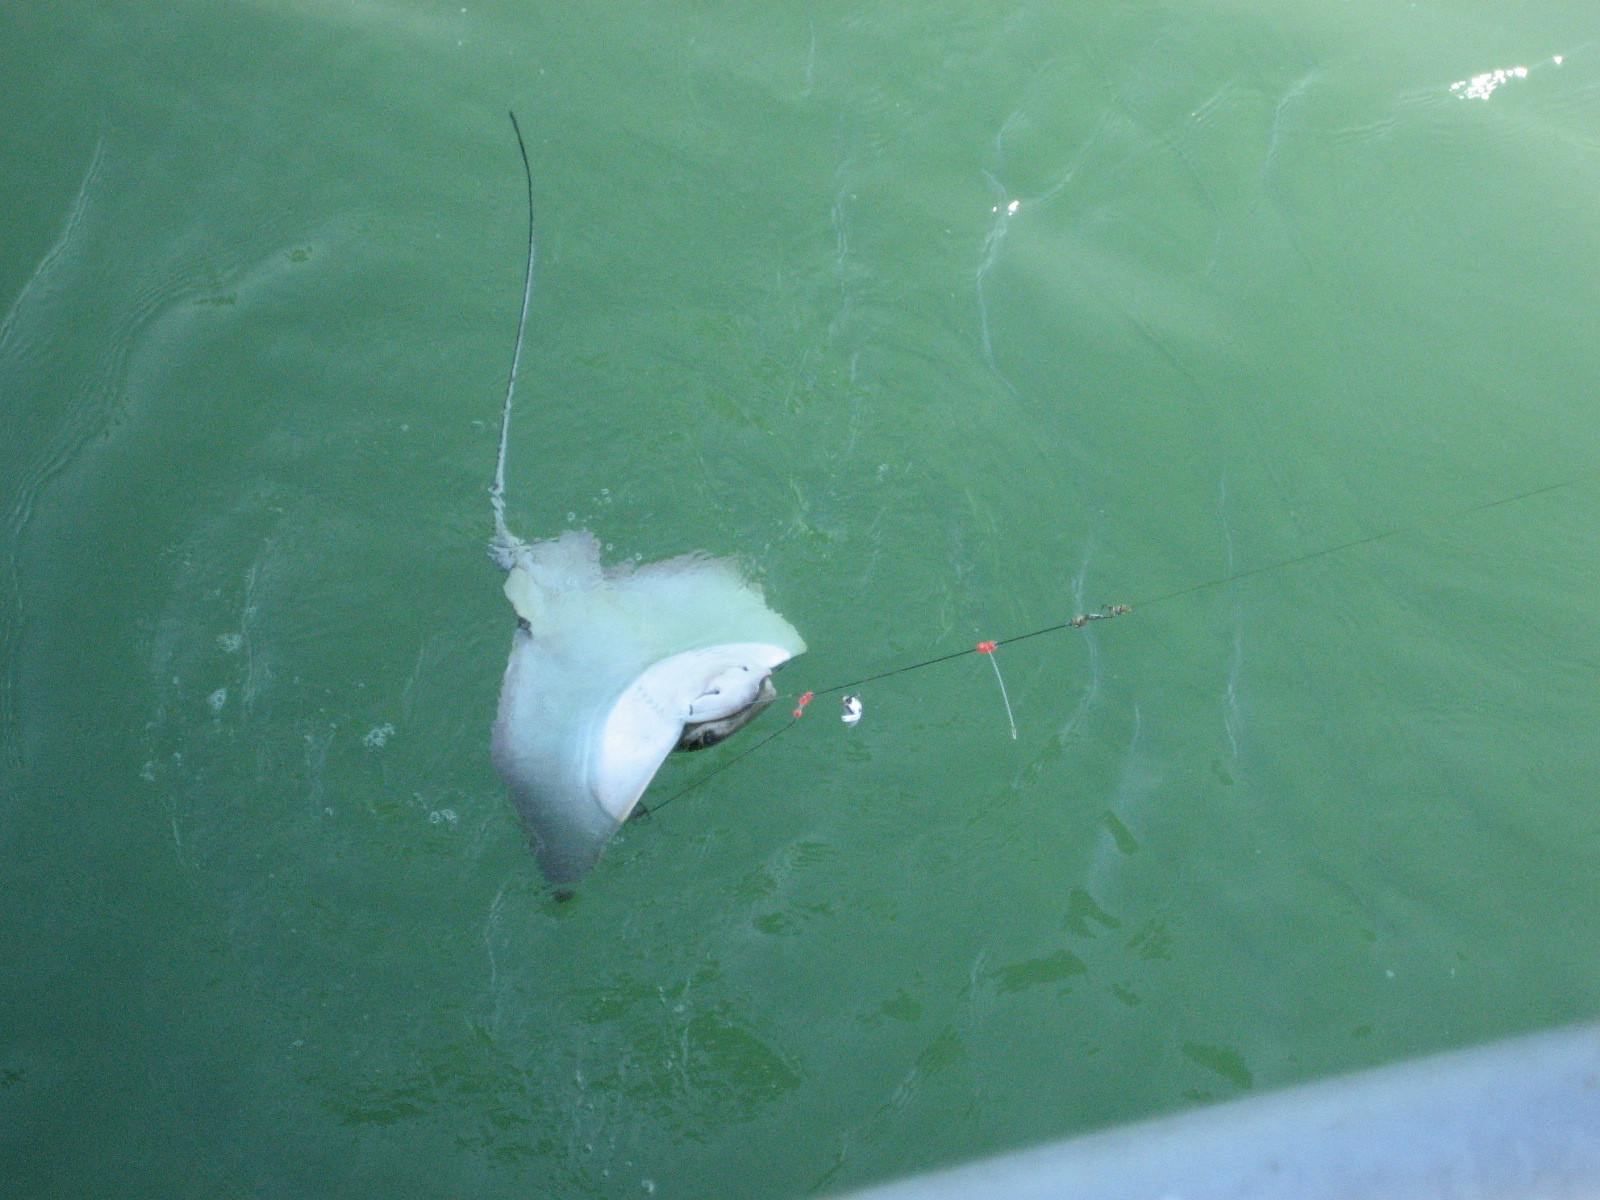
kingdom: Animalia
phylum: Chordata
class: Elasmobranchii
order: Myliobatiformes
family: Myliobatidae
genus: Myliobatis
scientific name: Myliobatis californica
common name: Bat ray
